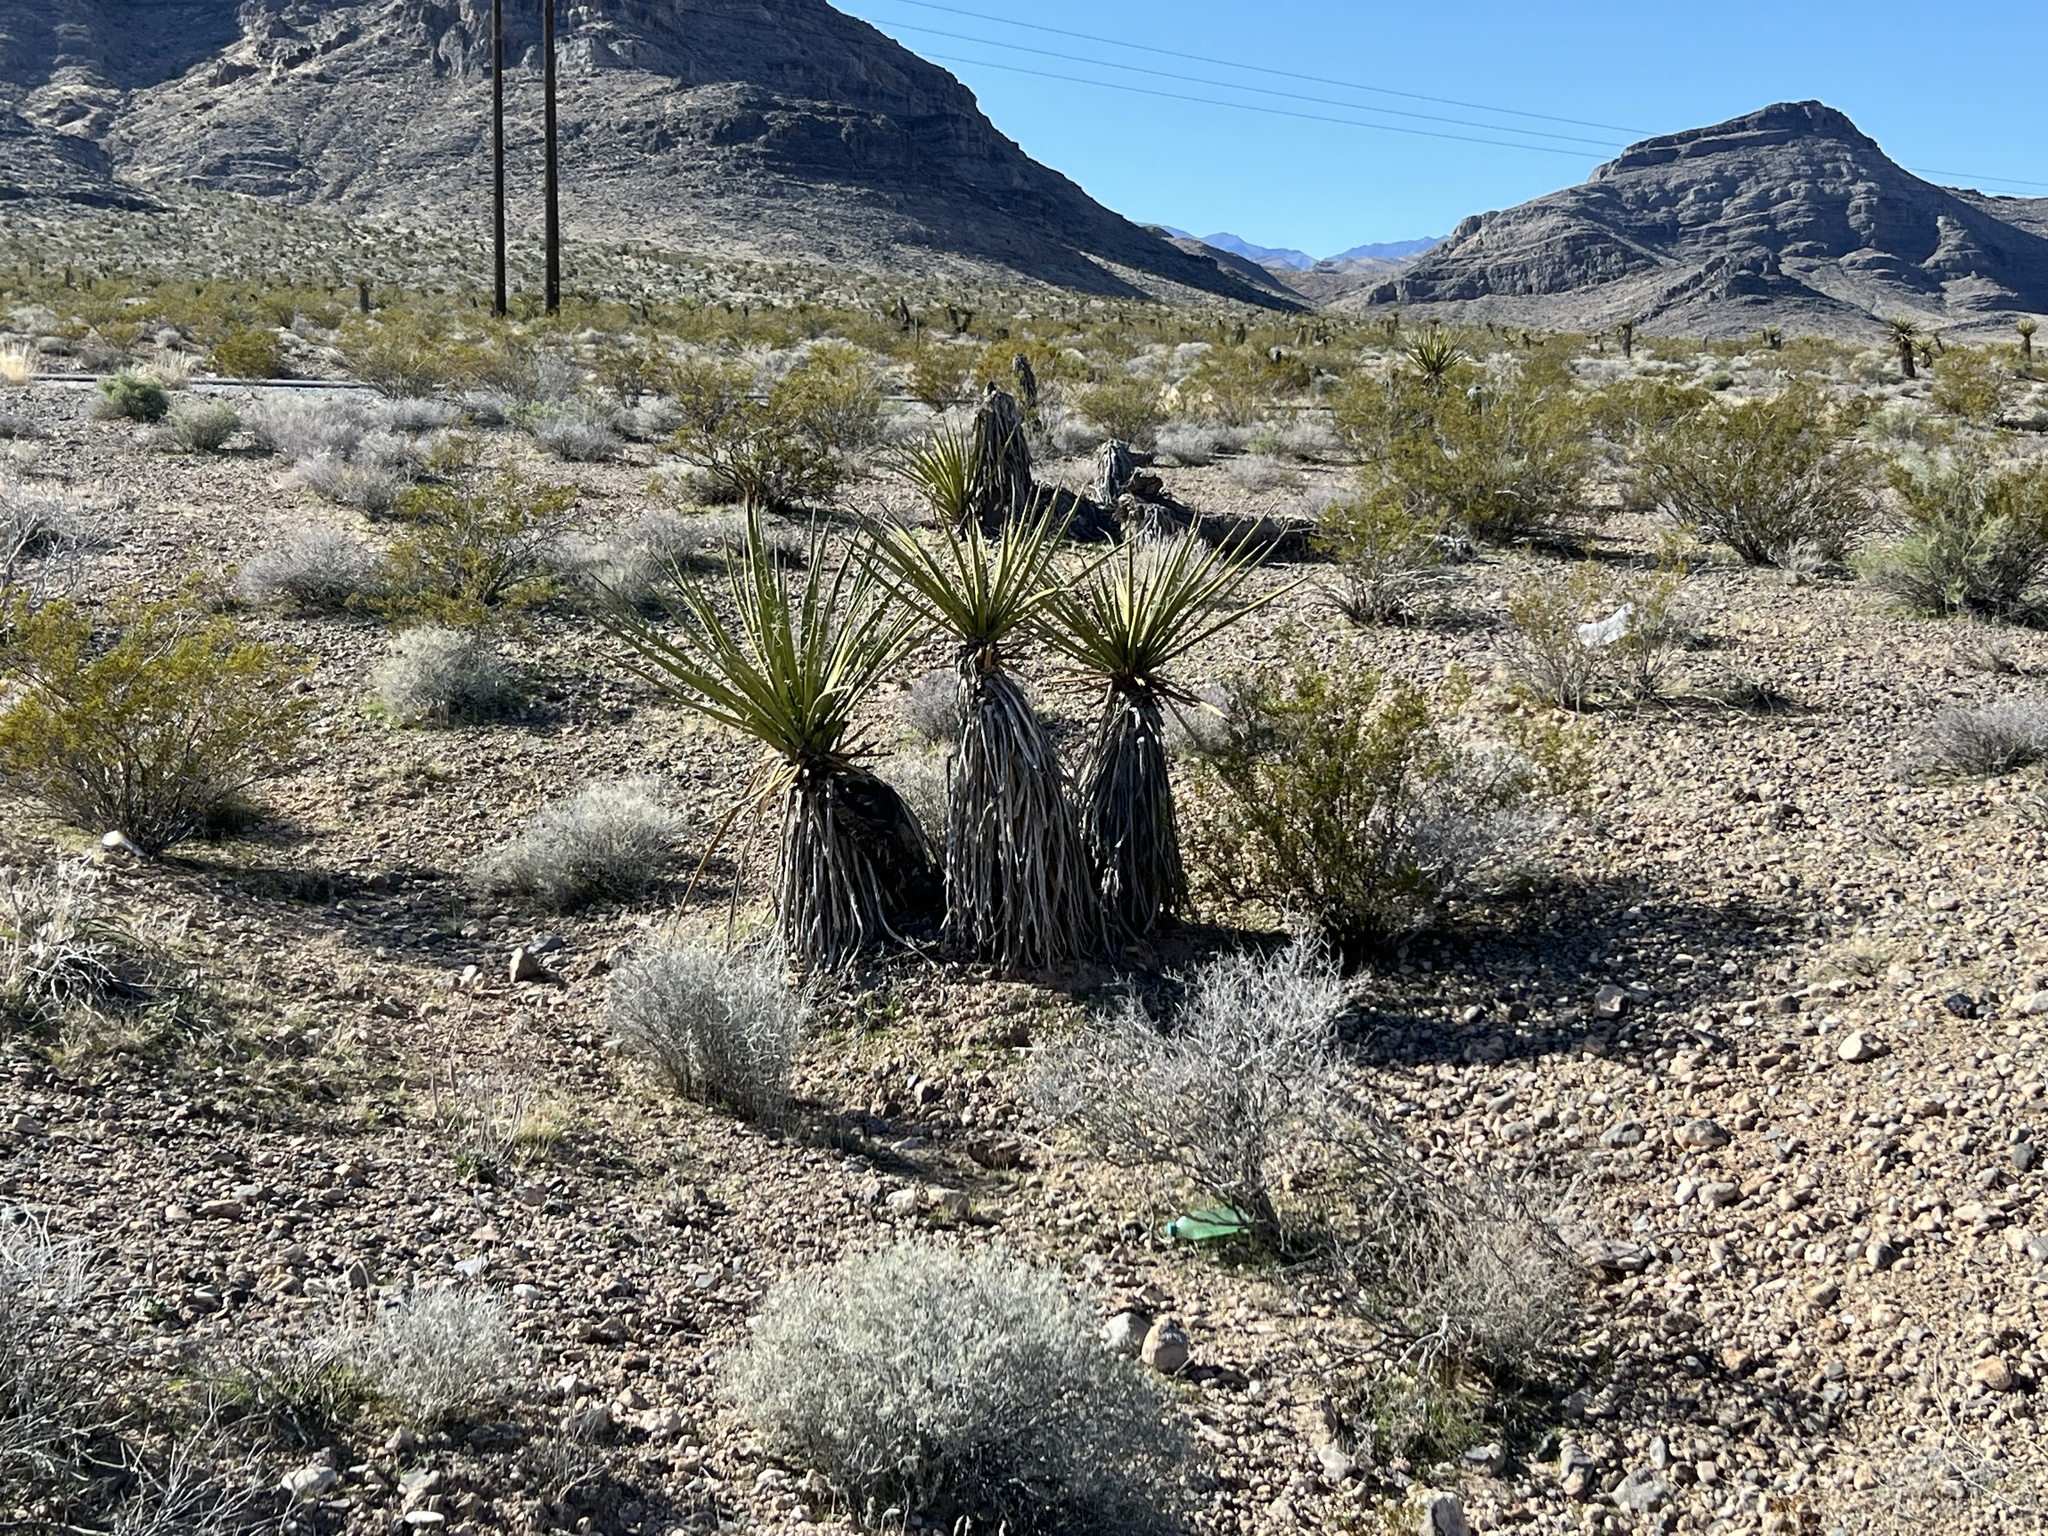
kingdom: Plantae
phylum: Tracheophyta
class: Liliopsida
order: Asparagales
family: Asparagaceae
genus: Yucca
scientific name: Yucca schidigera
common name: Mojave yucca
